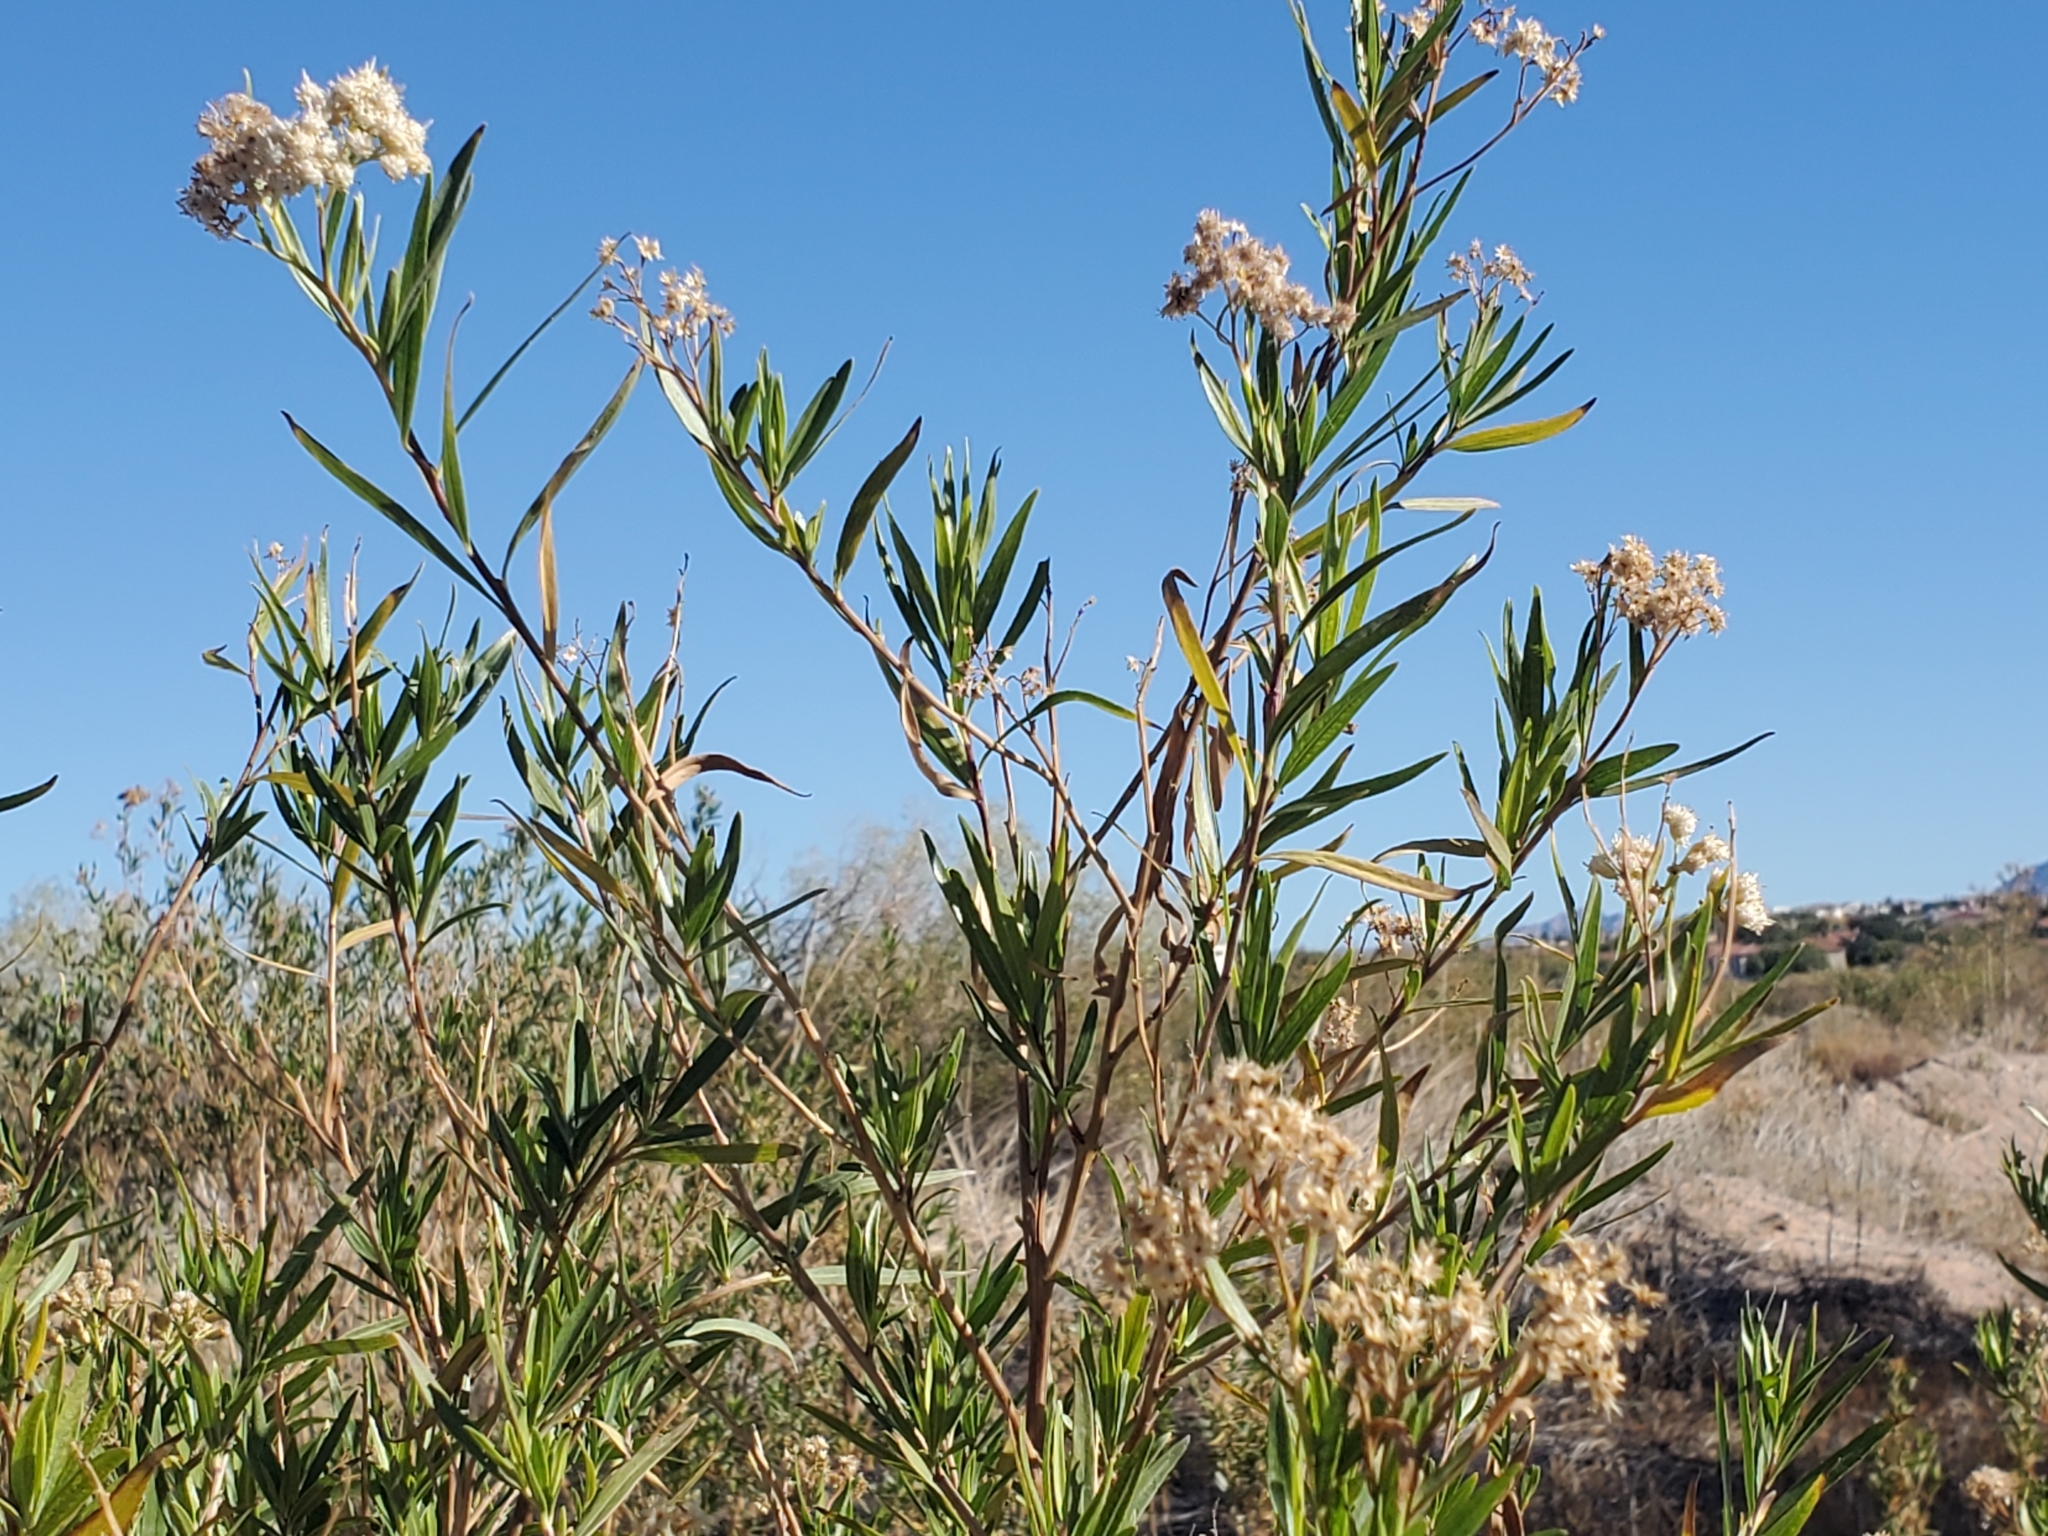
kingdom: Plantae
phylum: Tracheophyta
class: Magnoliopsida
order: Asterales
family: Asteraceae
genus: Baccharis
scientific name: Baccharis salicifolia
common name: Sticky baccharis
